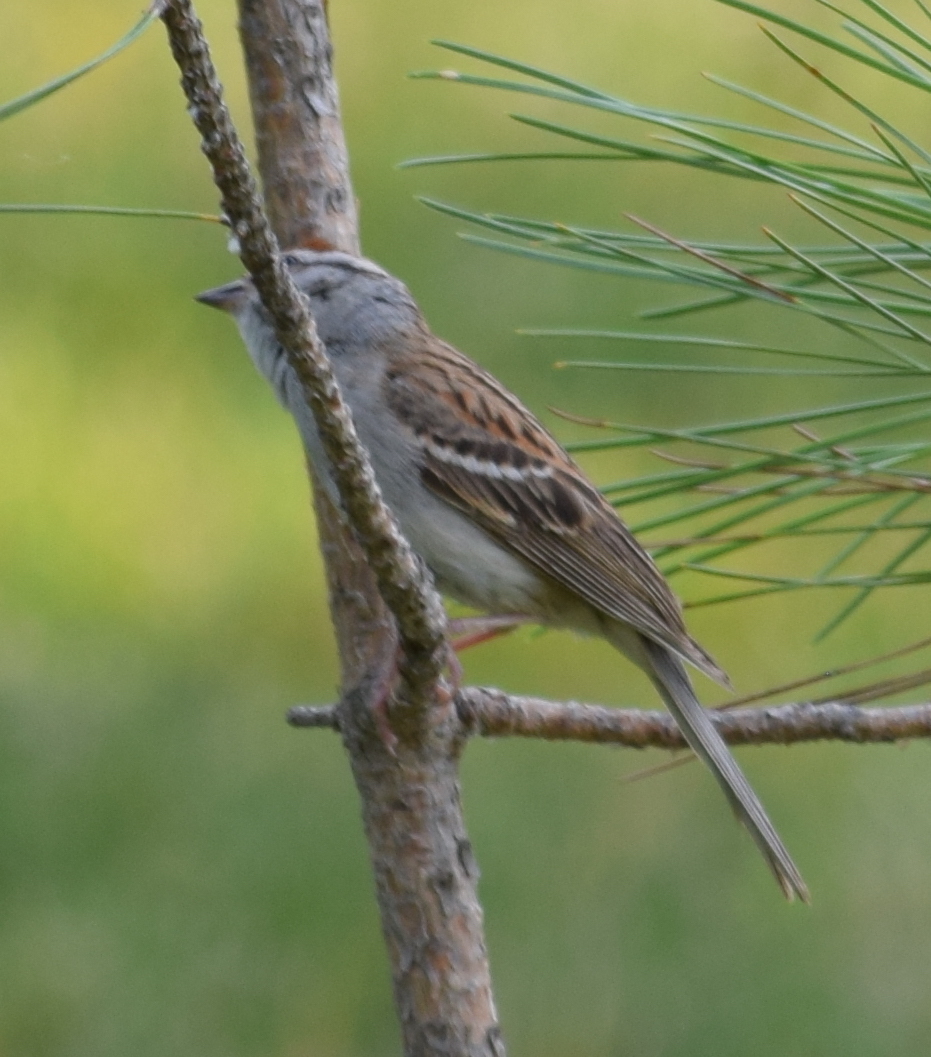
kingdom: Animalia
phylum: Chordata
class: Aves
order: Passeriformes
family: Passerellidae
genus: Spizella
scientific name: Spizella passerina
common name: Chipping sparrow
